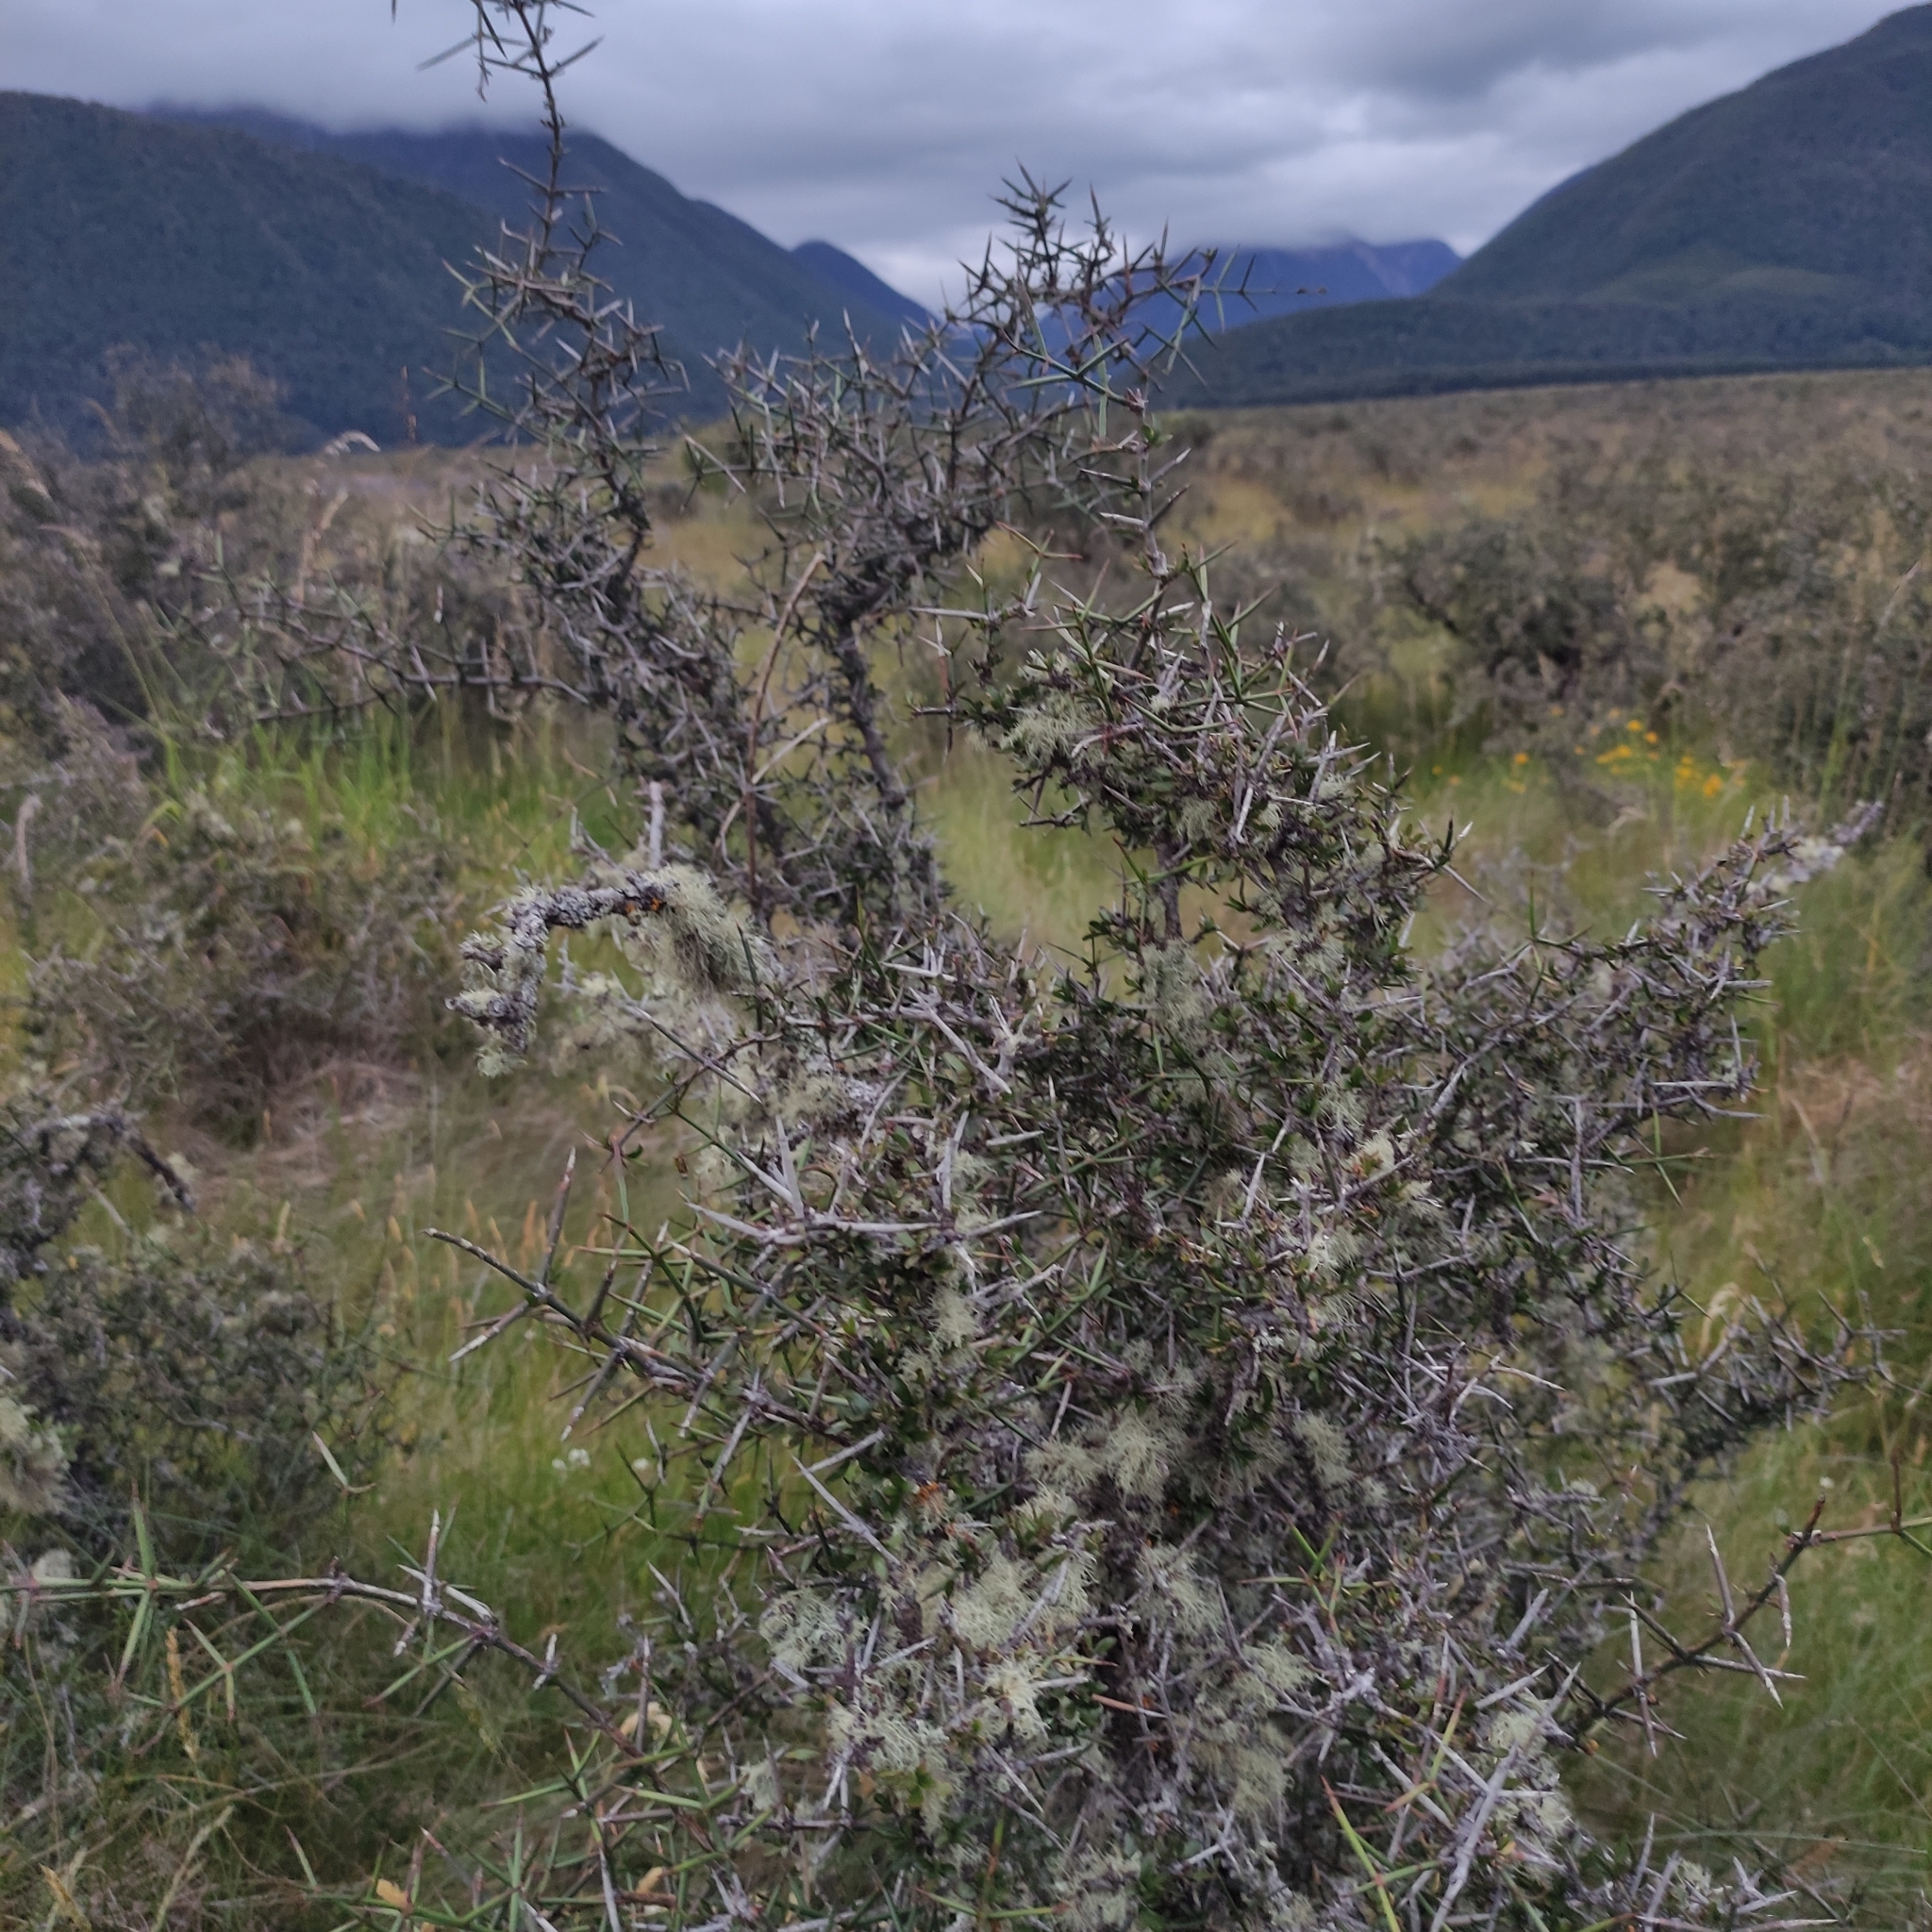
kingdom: Plantae
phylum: Tracheophyta
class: Magnoliopsida
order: Rosales
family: Rhamnaceae
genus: Discaria
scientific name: Discaria toumatou
